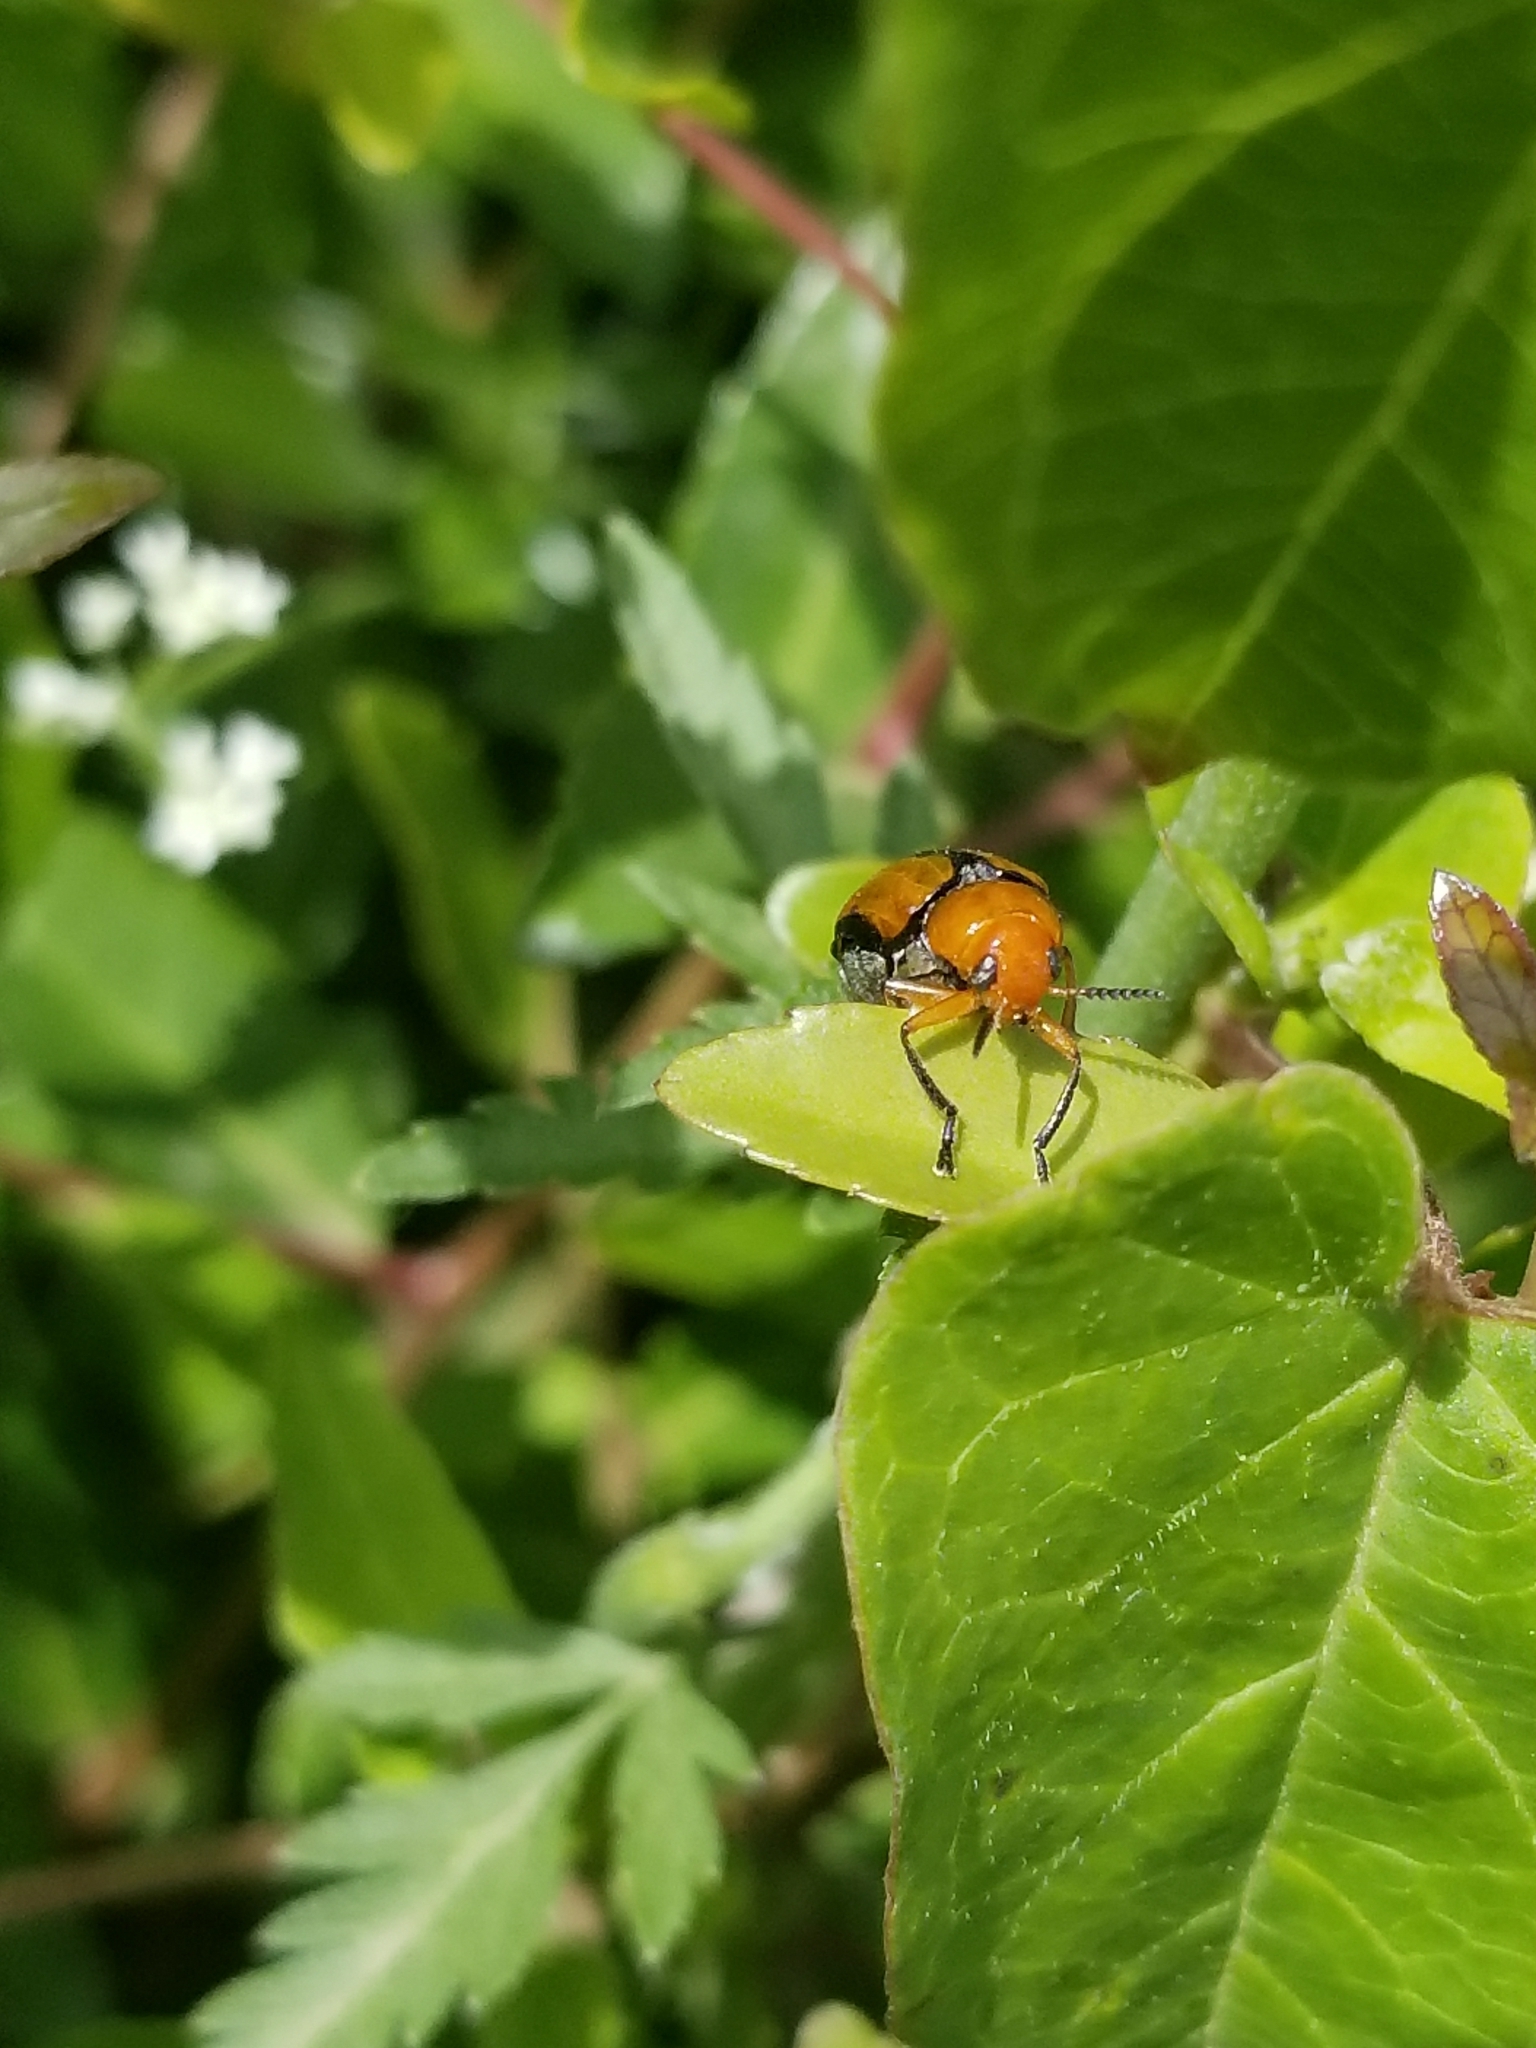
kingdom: Animalia
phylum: Arthropoda
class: Insecta
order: Coleoptera
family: Chrysomelidae
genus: Anomoea
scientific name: Anomoea laticlavia
